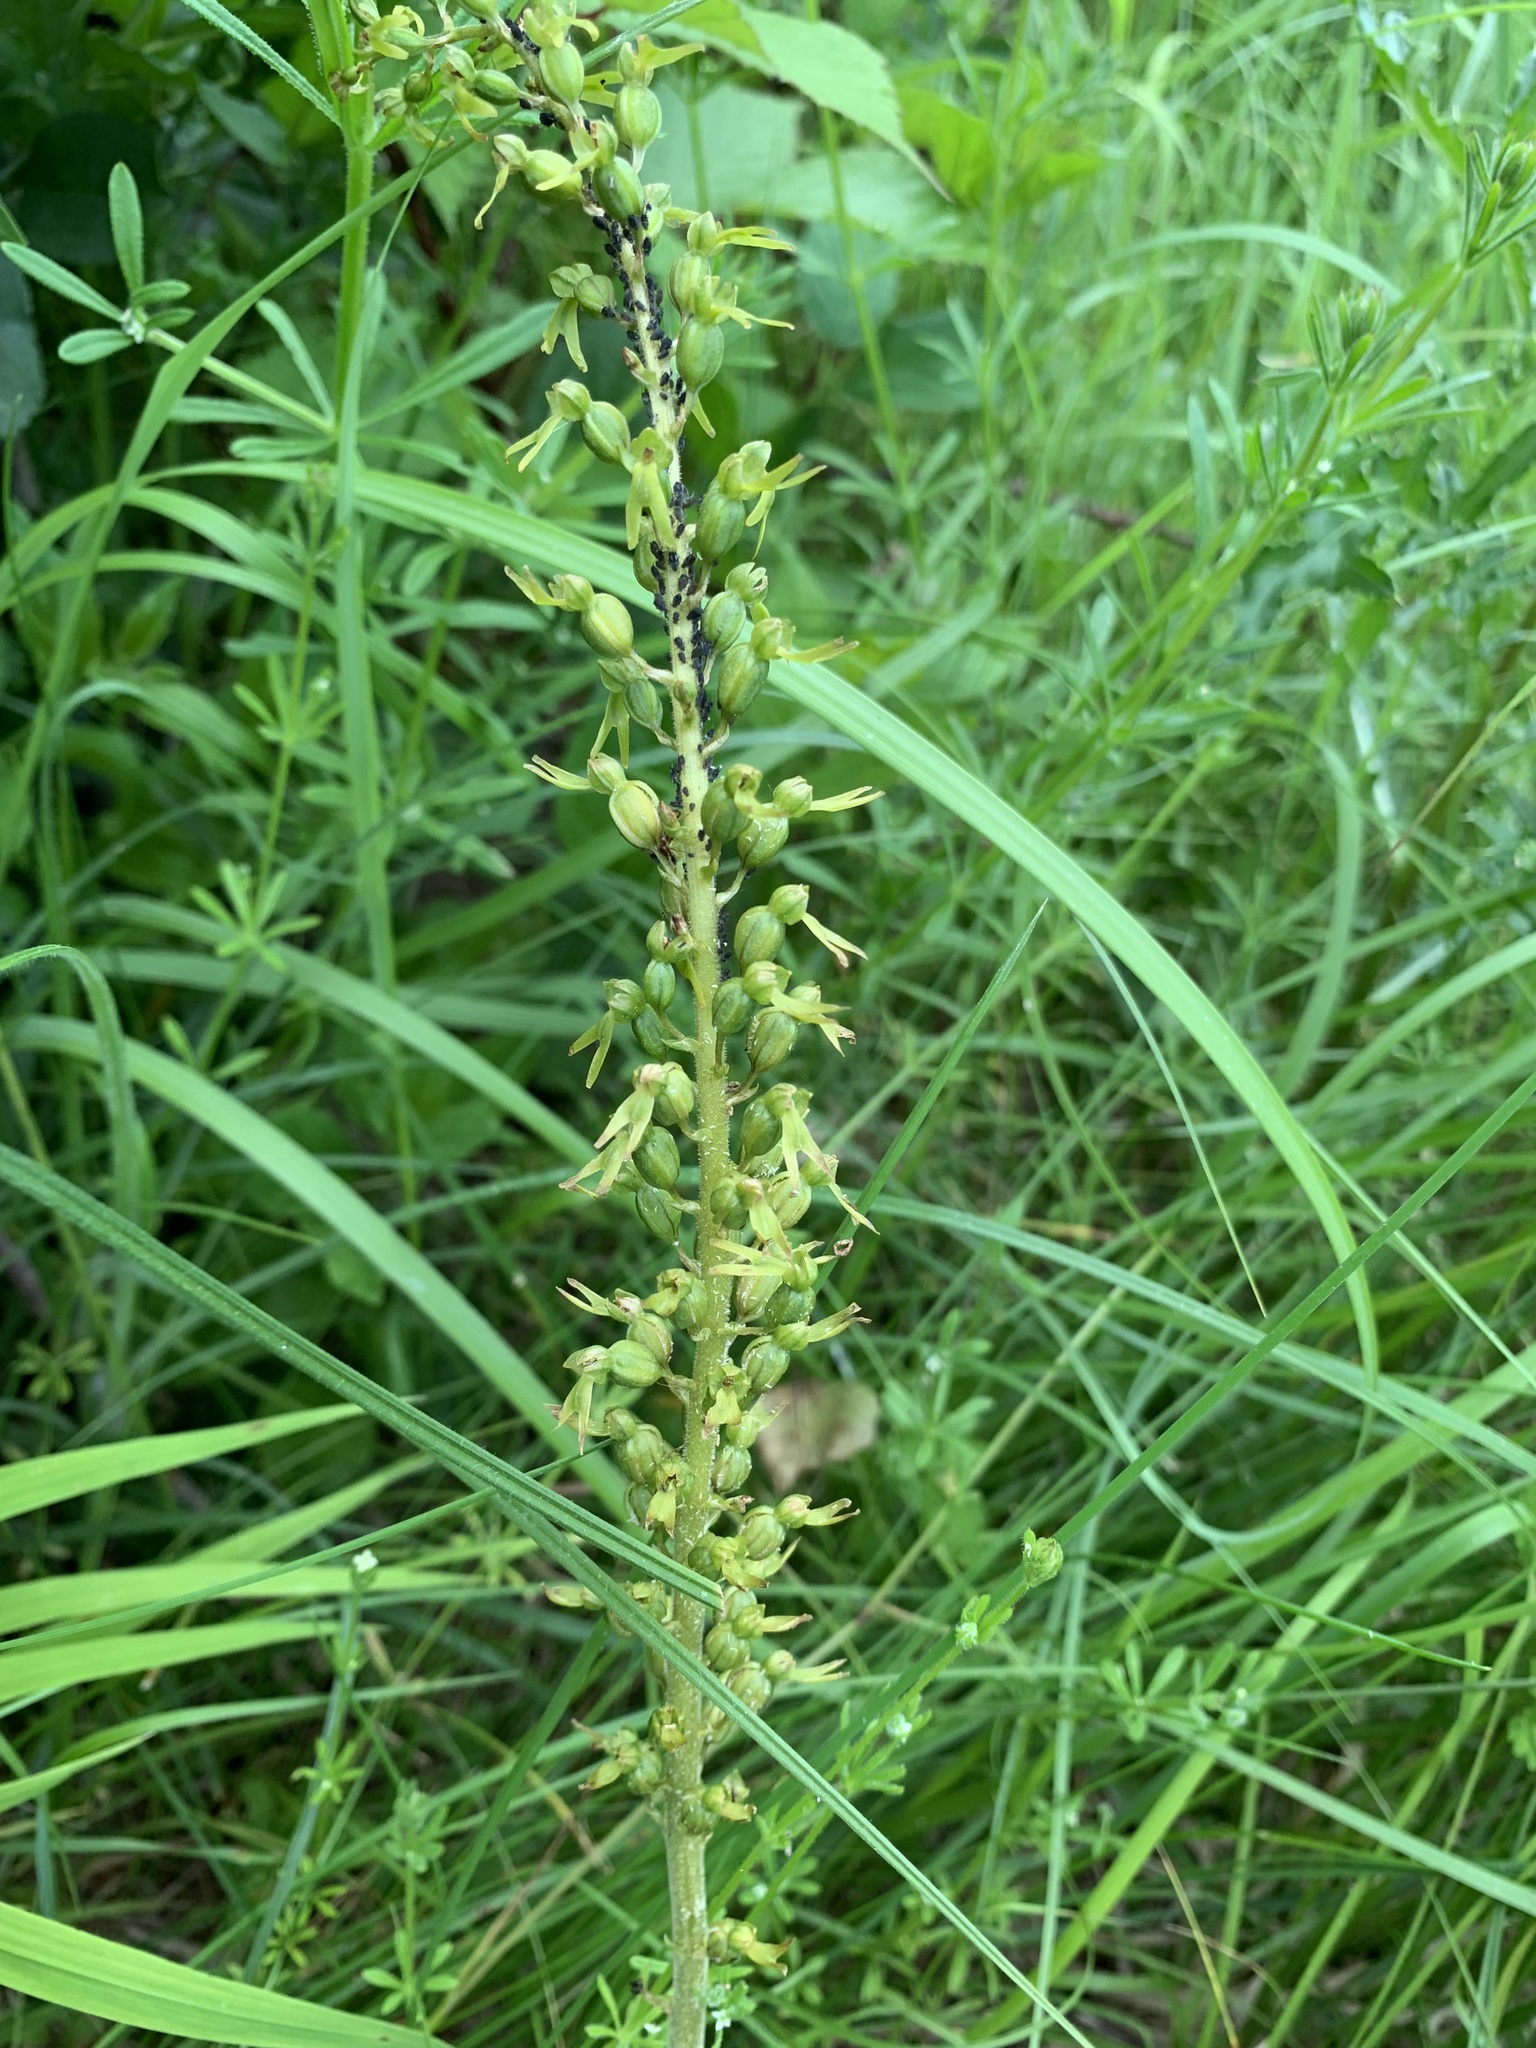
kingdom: Plantae
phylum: Tracheophyta
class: Liliopsida
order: Asparagales
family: Orchidaceae
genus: Neottia
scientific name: Neottia ovata
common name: Common twayblade
